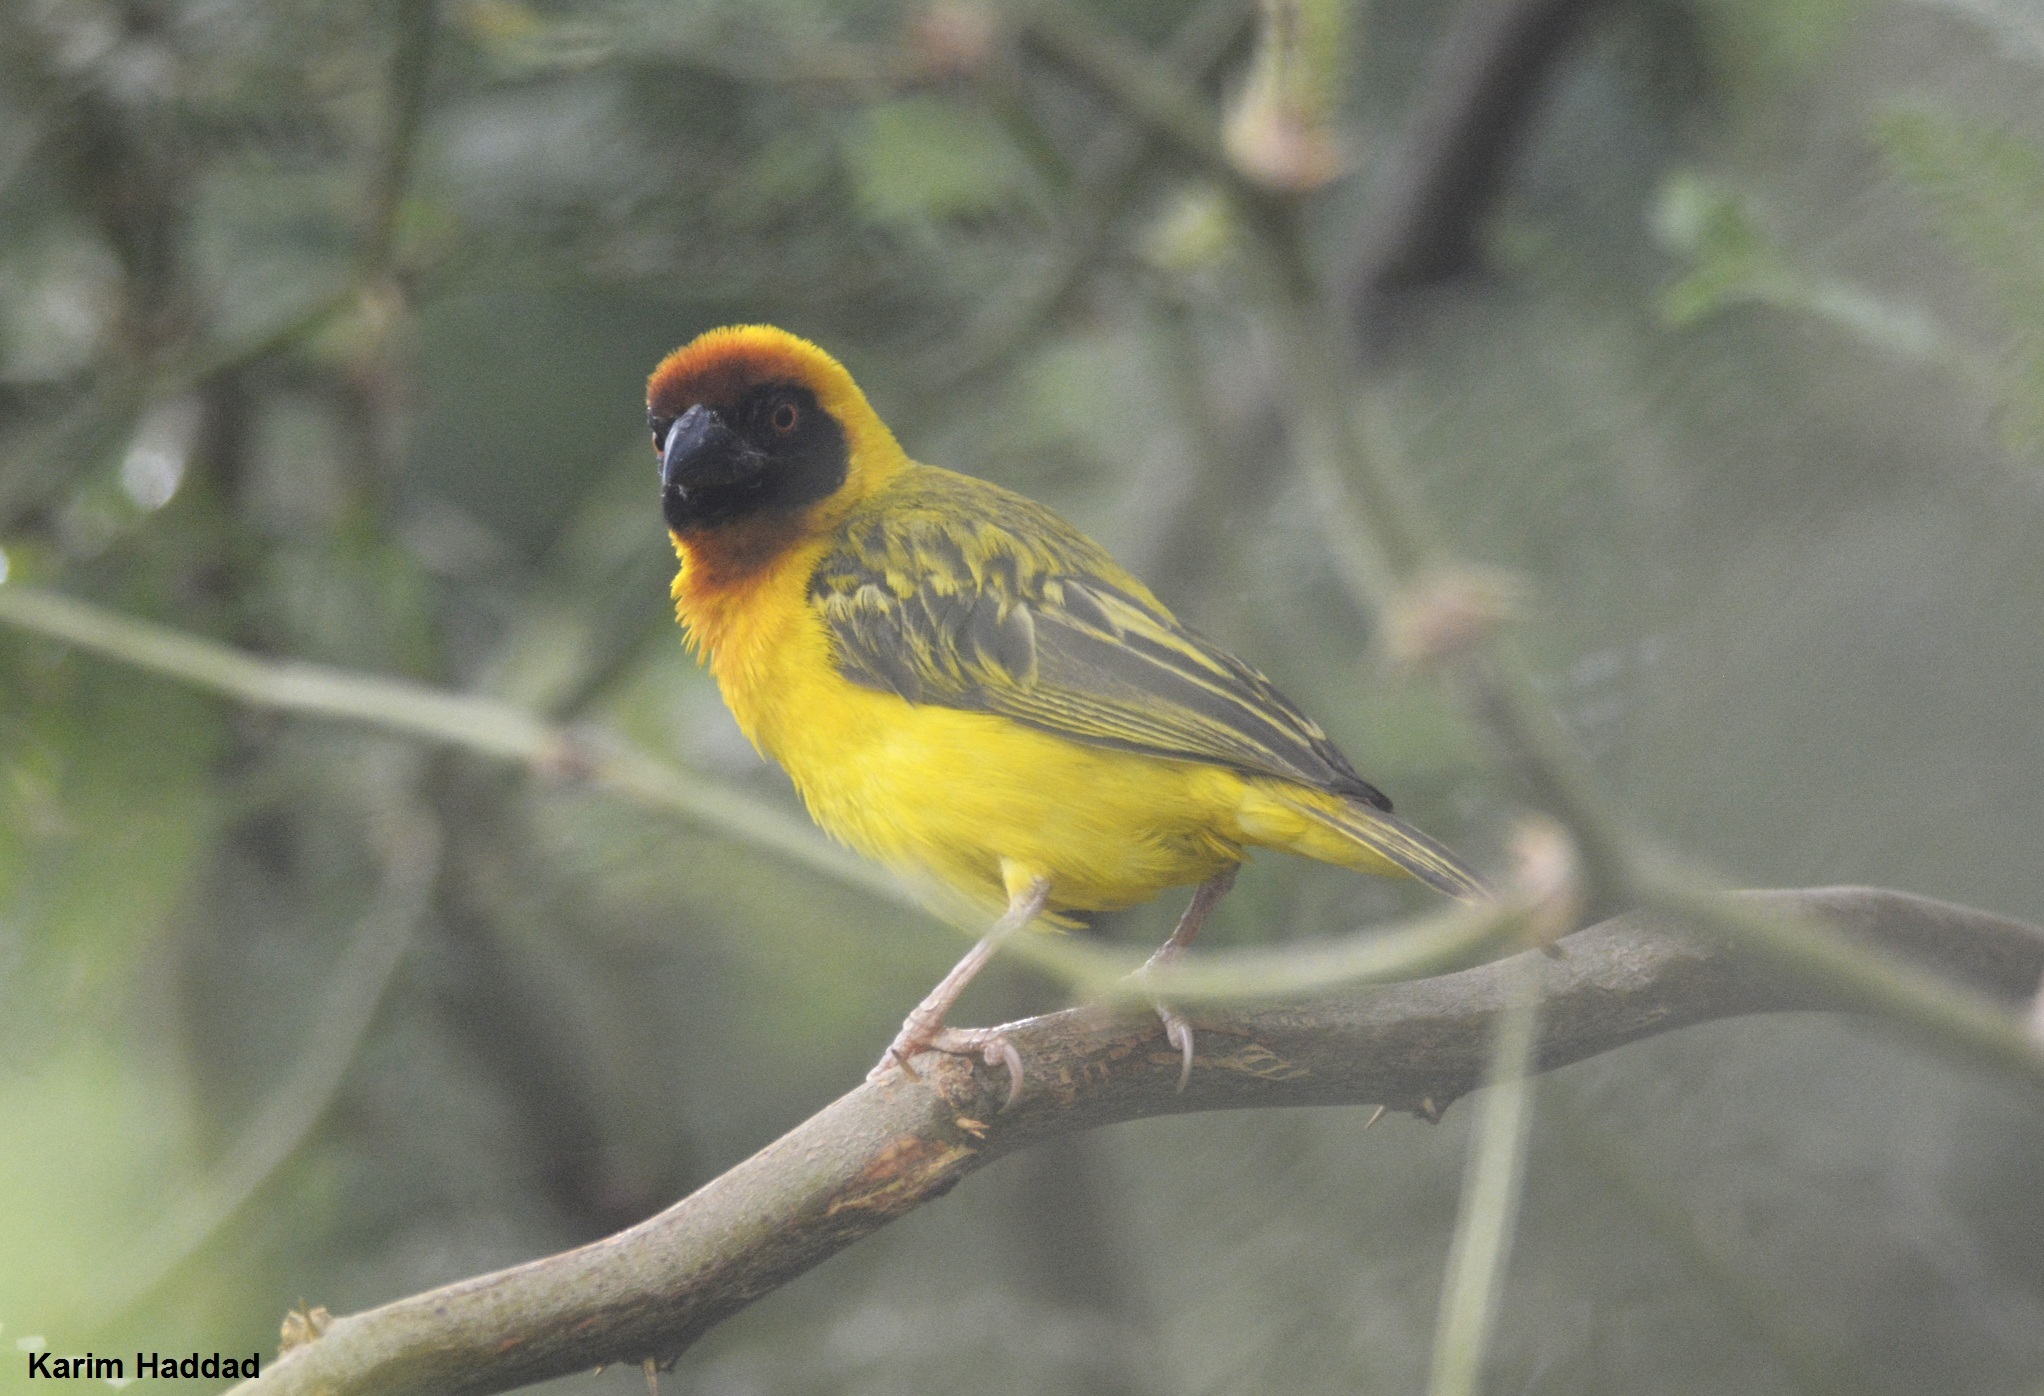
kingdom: Animalia
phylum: Chordata
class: Aves
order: Passeriformes
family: Ploceidae
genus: Ploceus
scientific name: Ploceus vitellinus
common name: Vitelline masked weaver
